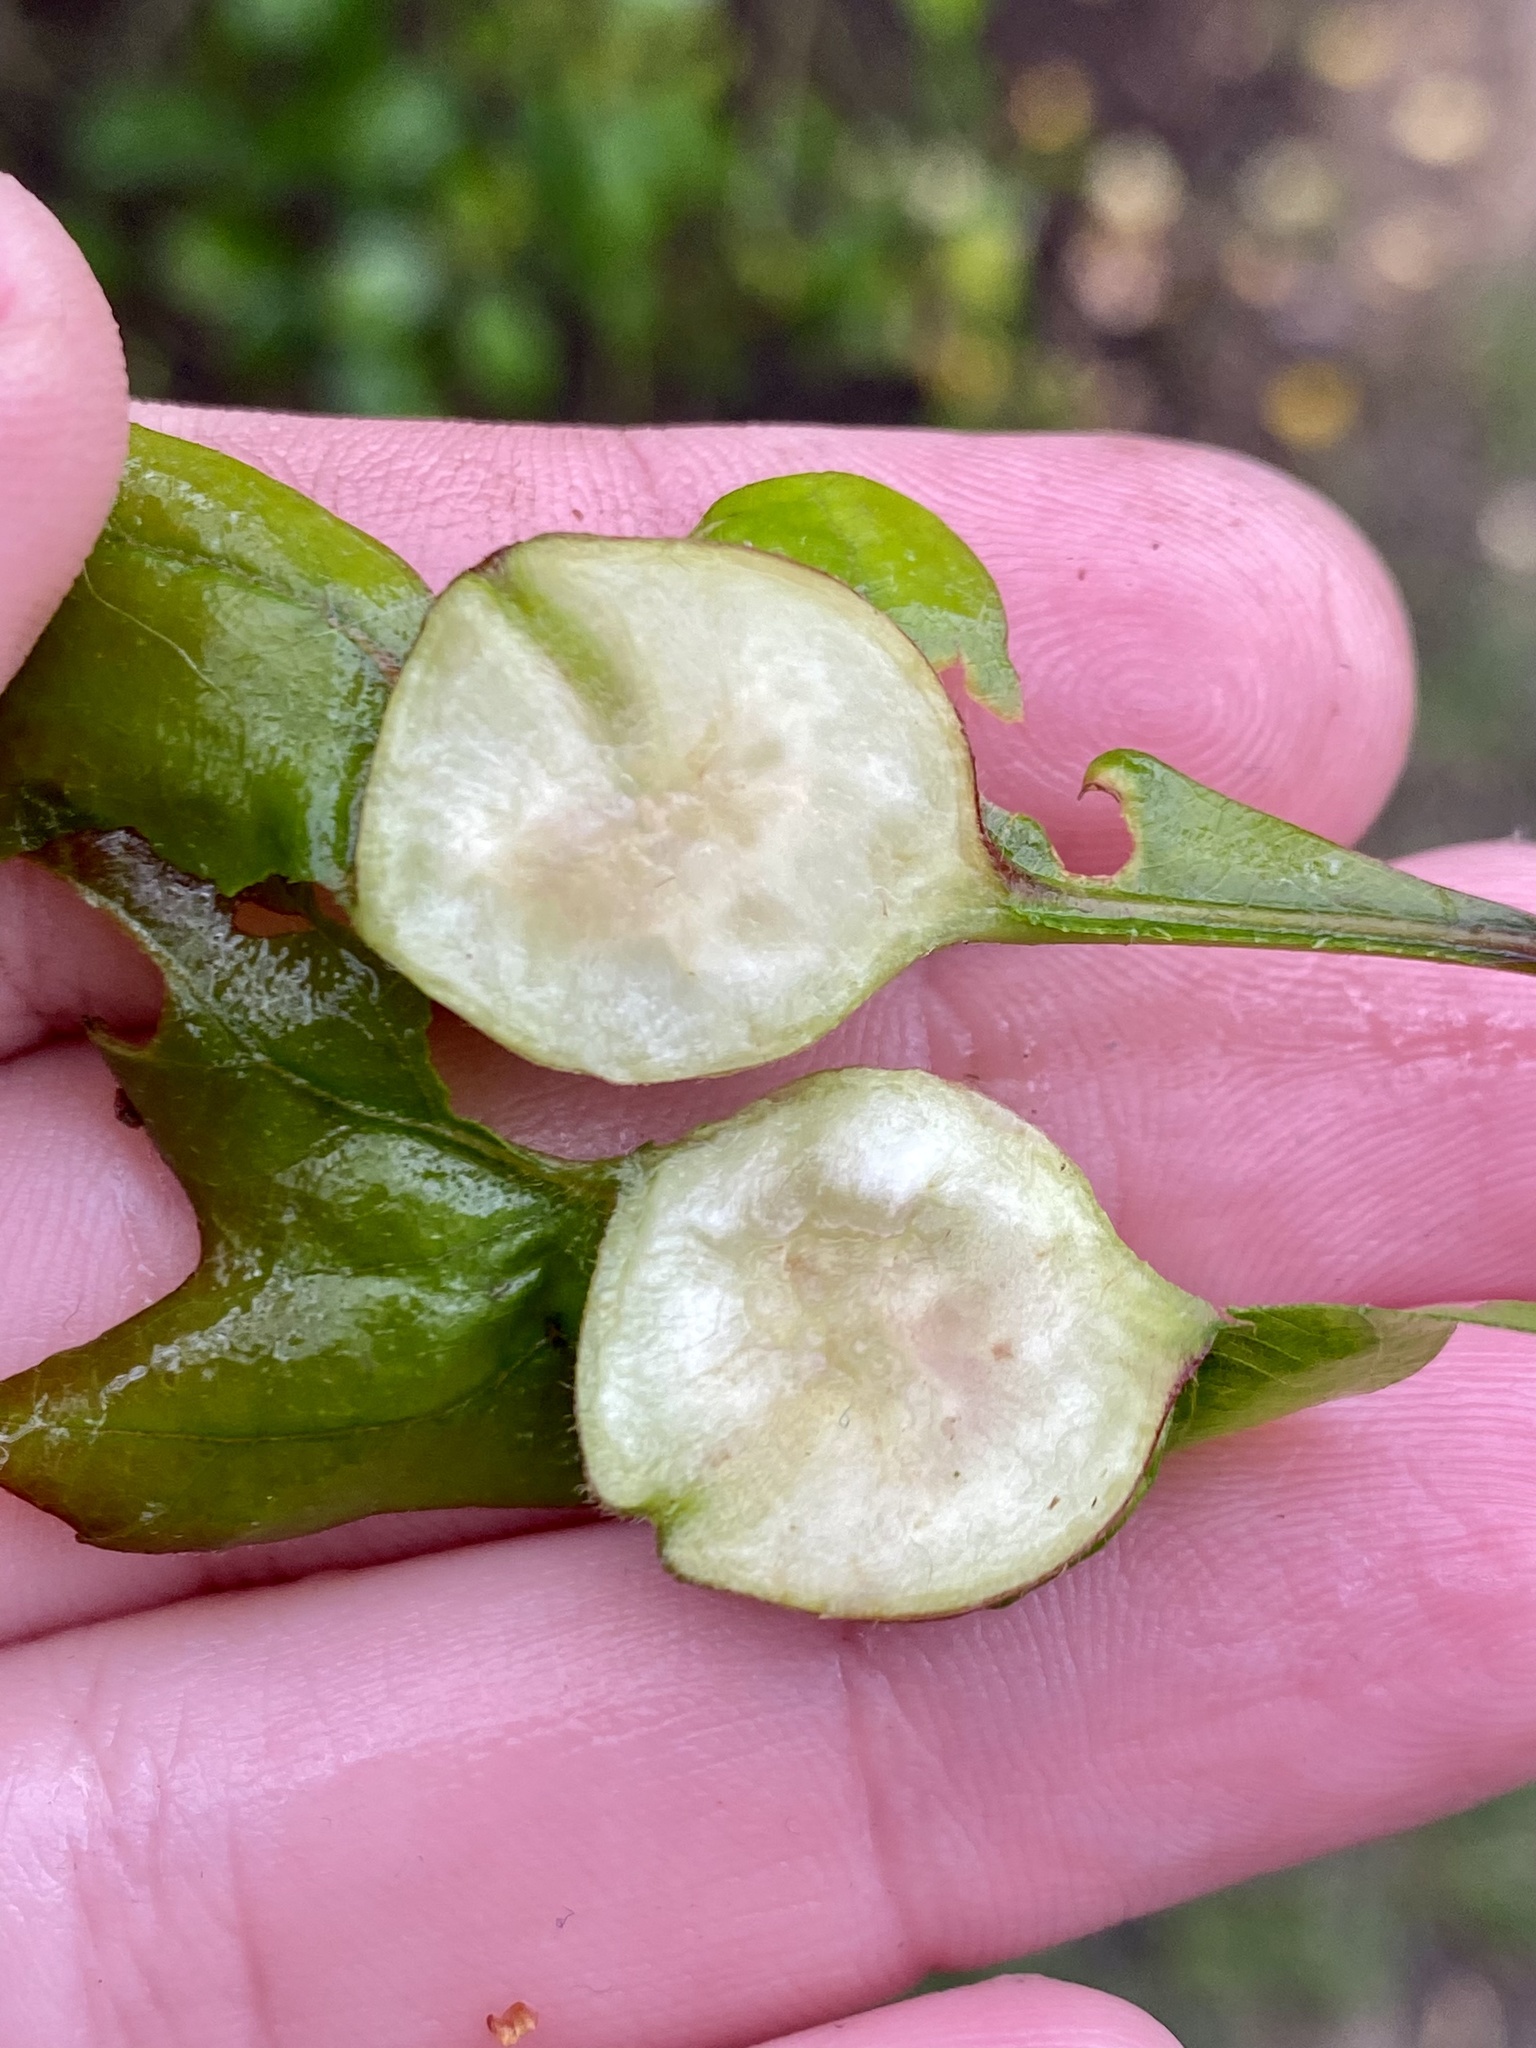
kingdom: Animalia
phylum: Arthropoda
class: Insecta
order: Hymenoptera
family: Cynipidae
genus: Andricus
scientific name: Andricus
